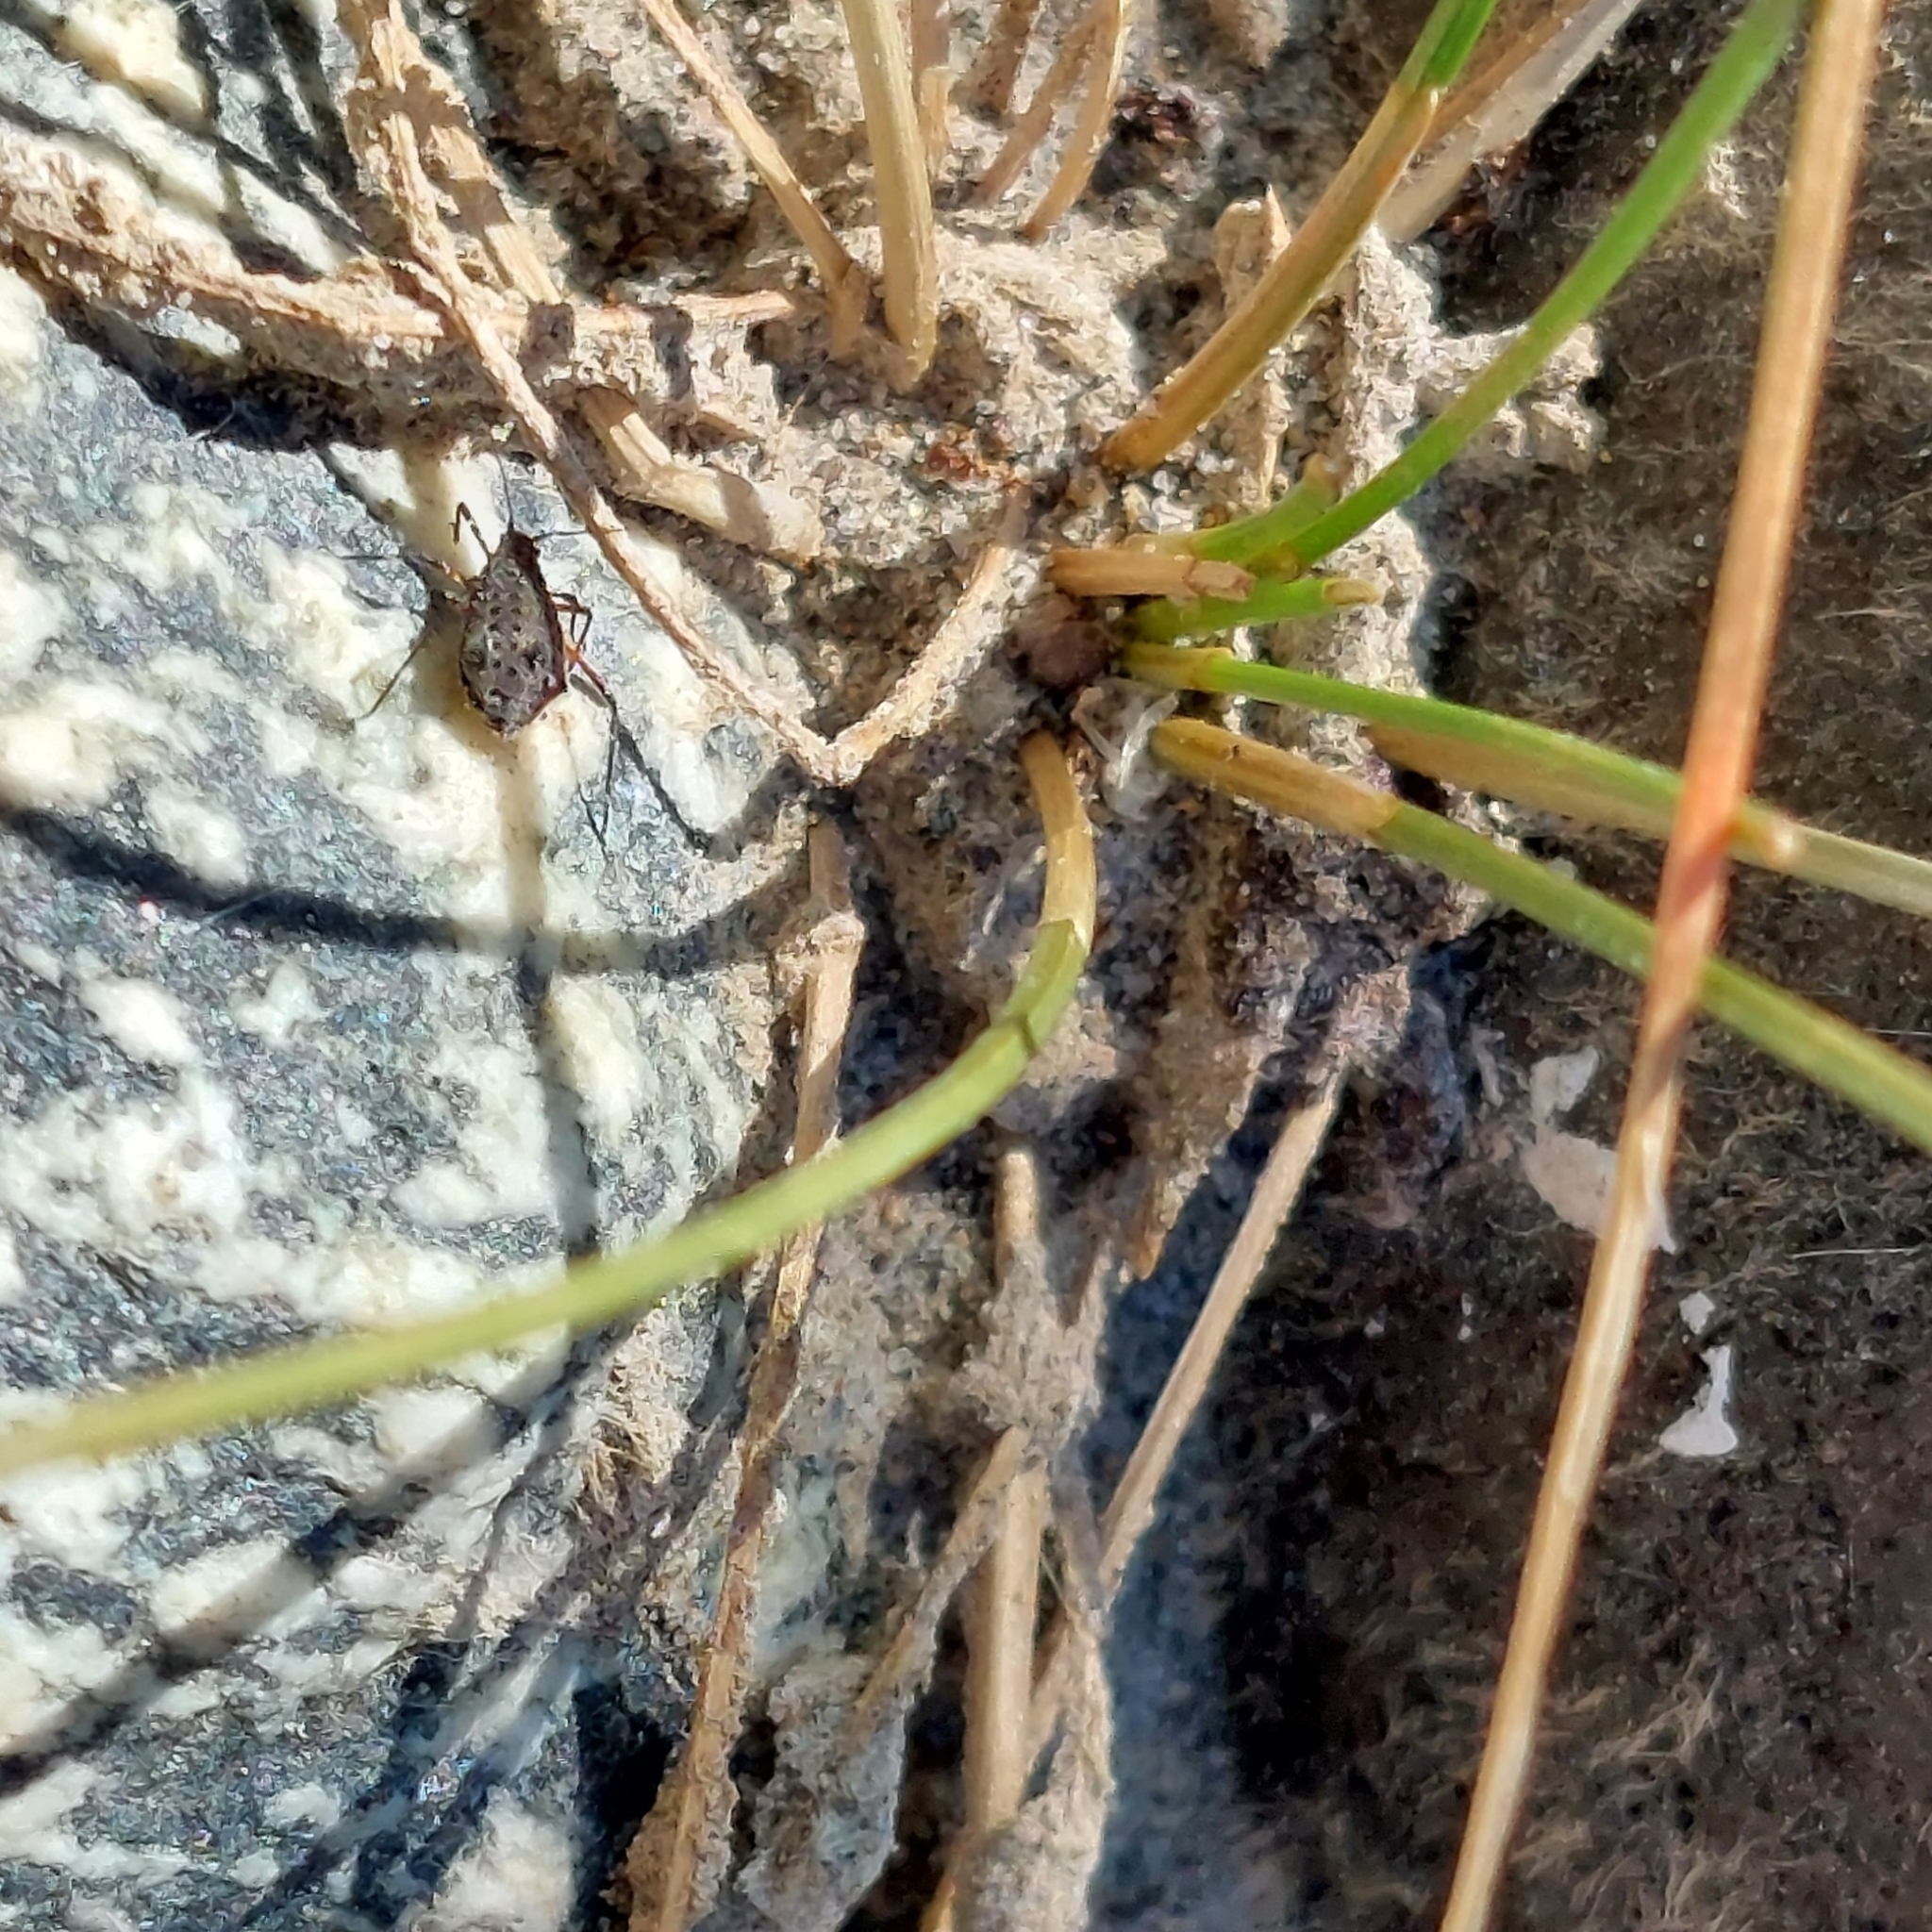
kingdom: Animalia
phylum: Arthropoda
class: Insecta
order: Hemiptera
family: Aphididae
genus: Tuberolachnus
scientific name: Tuberolachnus salignus
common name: Giant willow aphid
